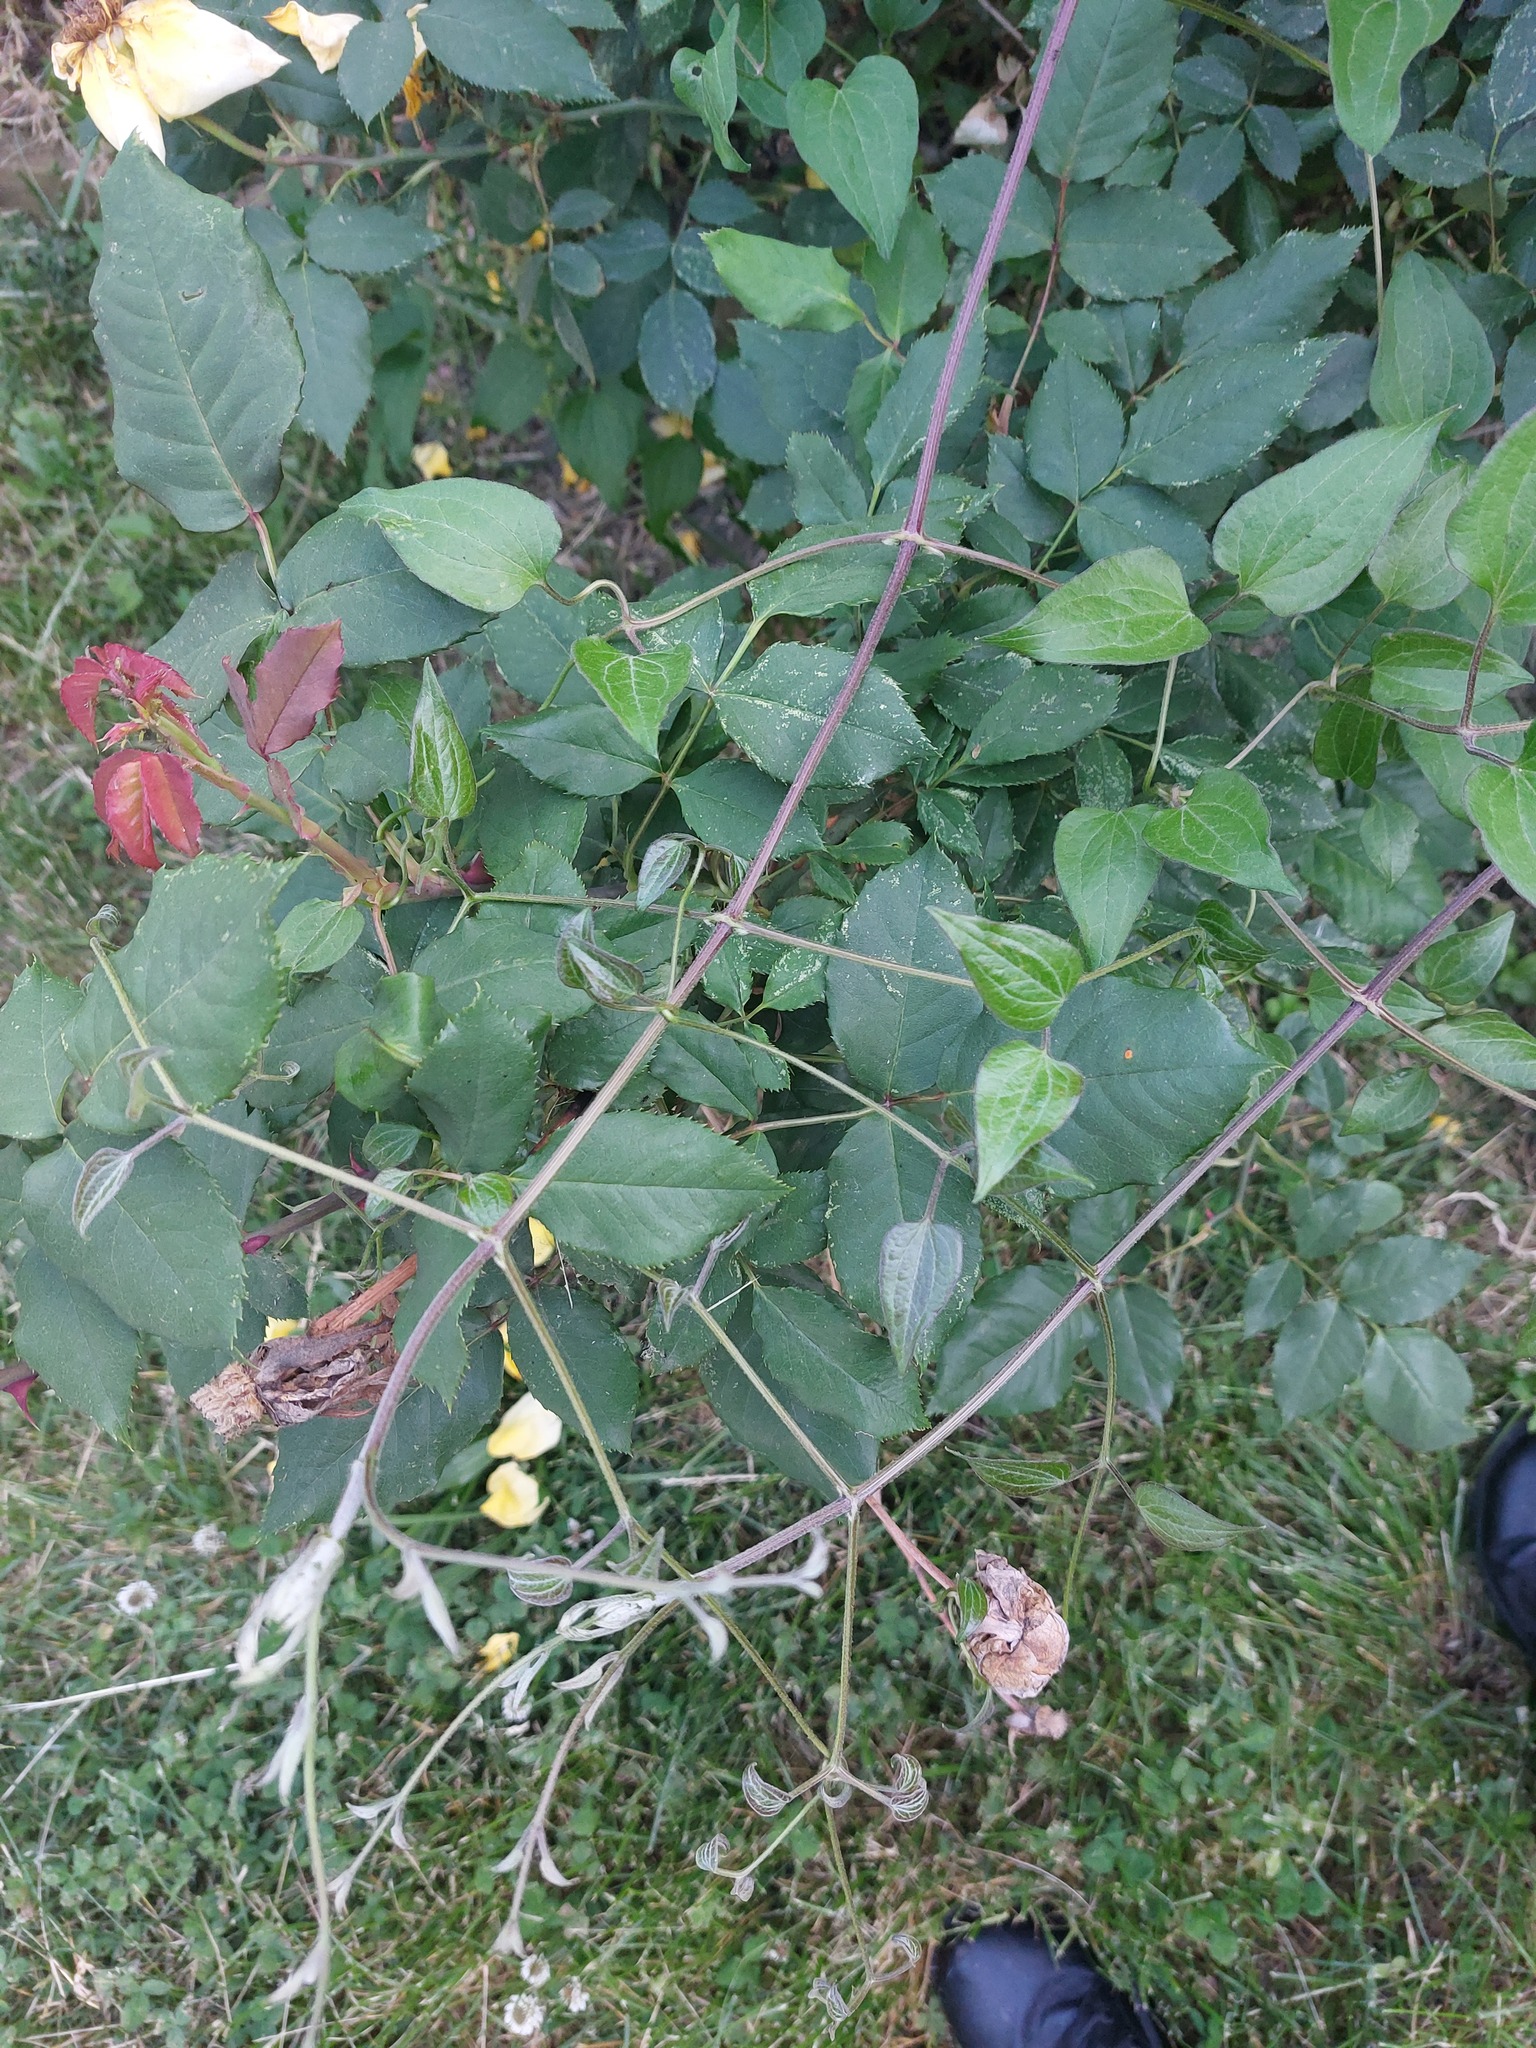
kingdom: Plantae
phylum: Tracheophyta
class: Magnoliopsida
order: Ranunculales
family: Ranunculaceae
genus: Clematis
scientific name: Clematis terniflora
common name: Sweet autumn clematis
